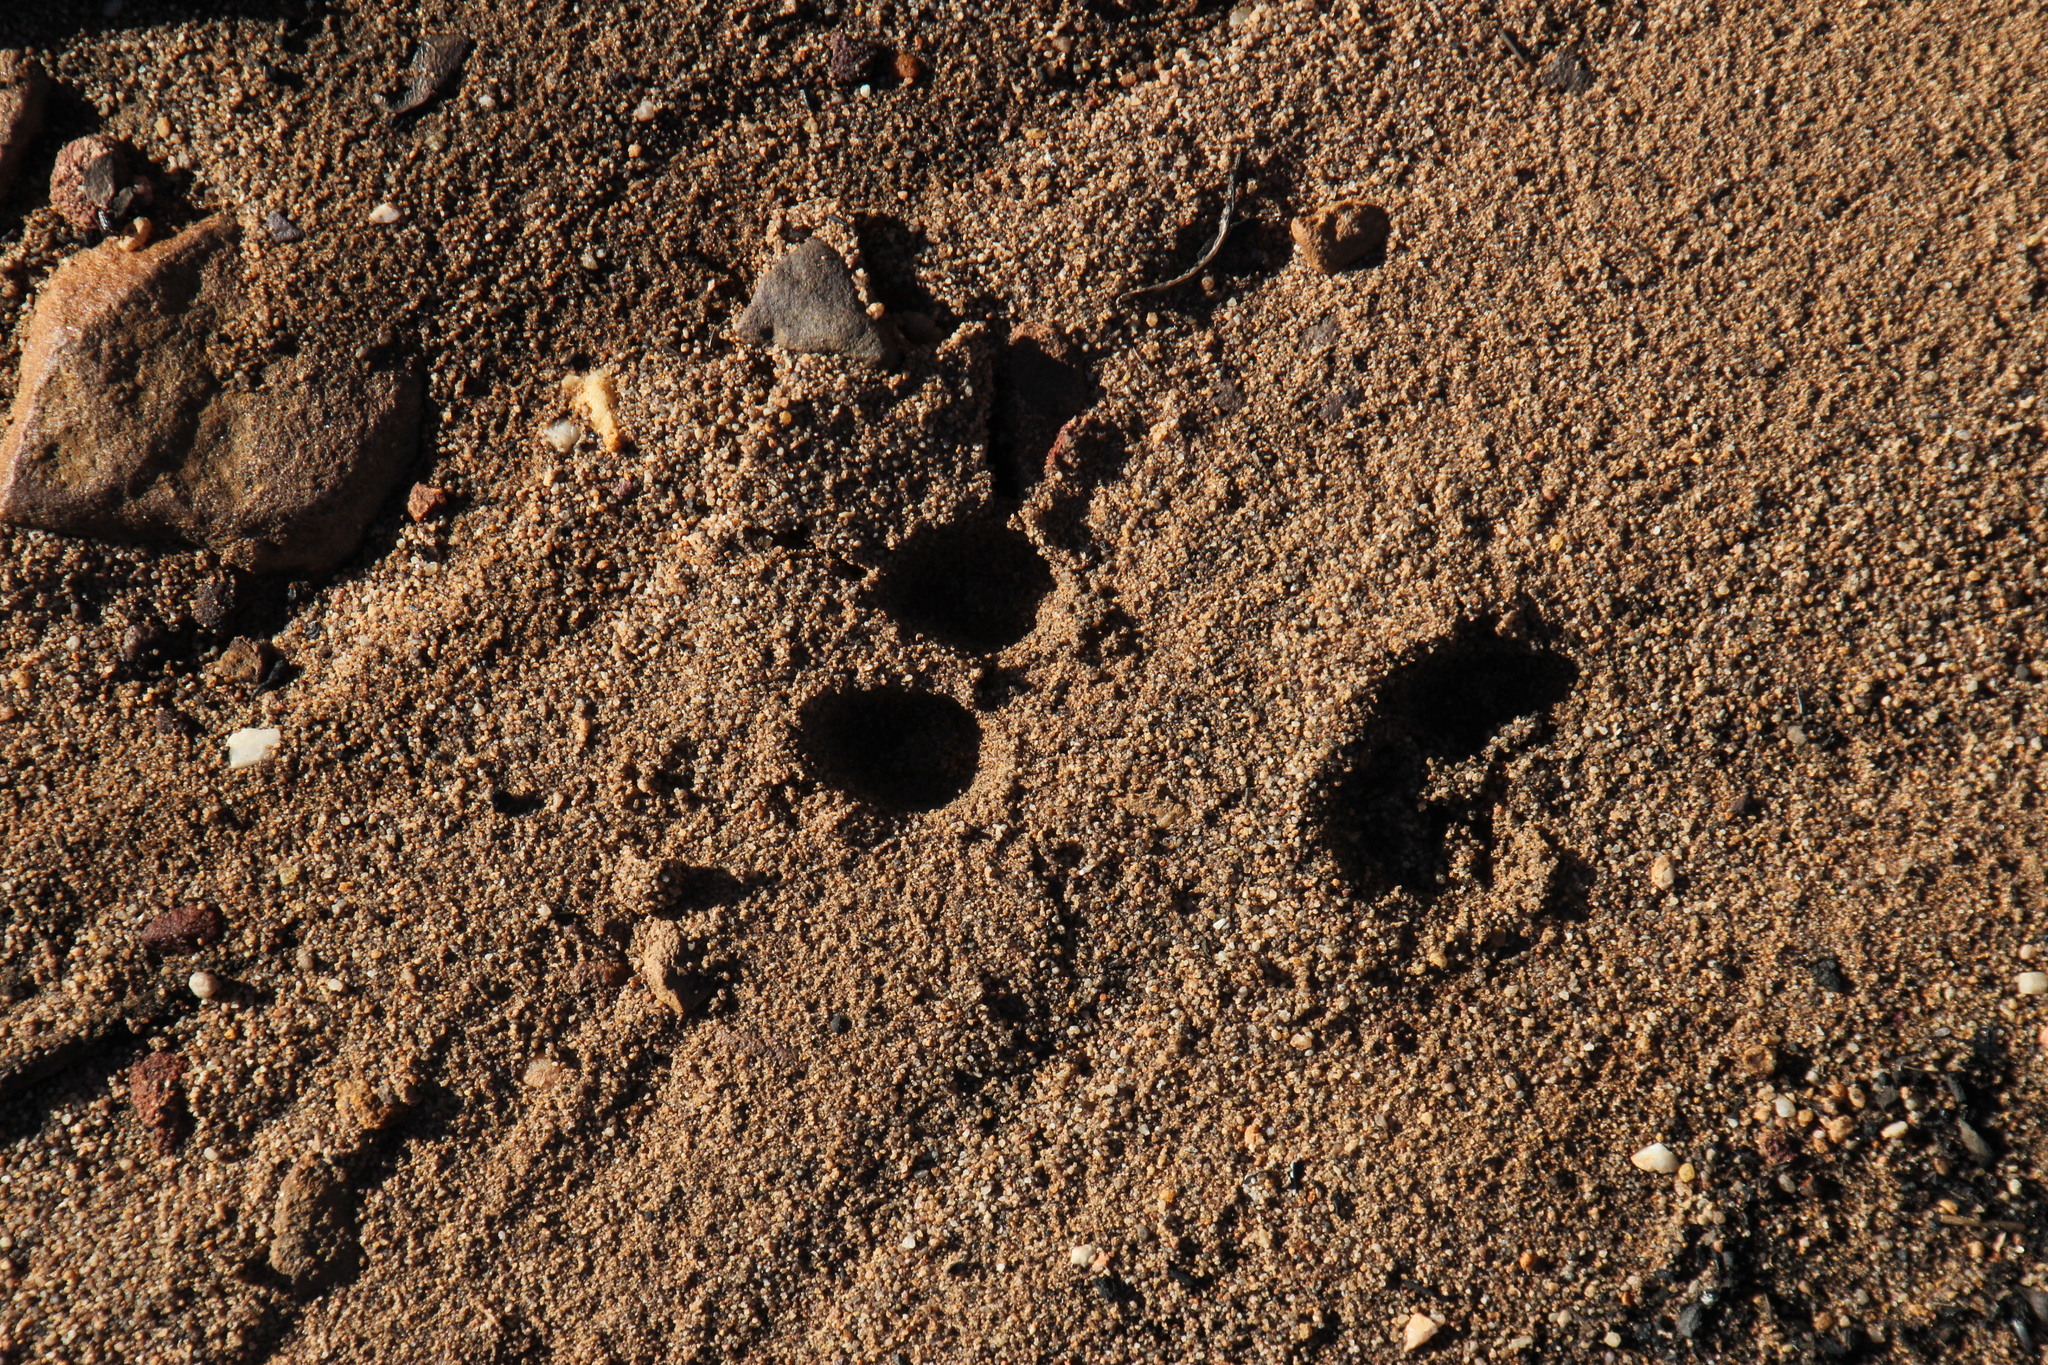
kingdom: Animalia
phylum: Chordata
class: Mammalia
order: Artiodactyla
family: Bovidae
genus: Oreotragus
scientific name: Oreotragus oreotragus
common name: Klipspringer
